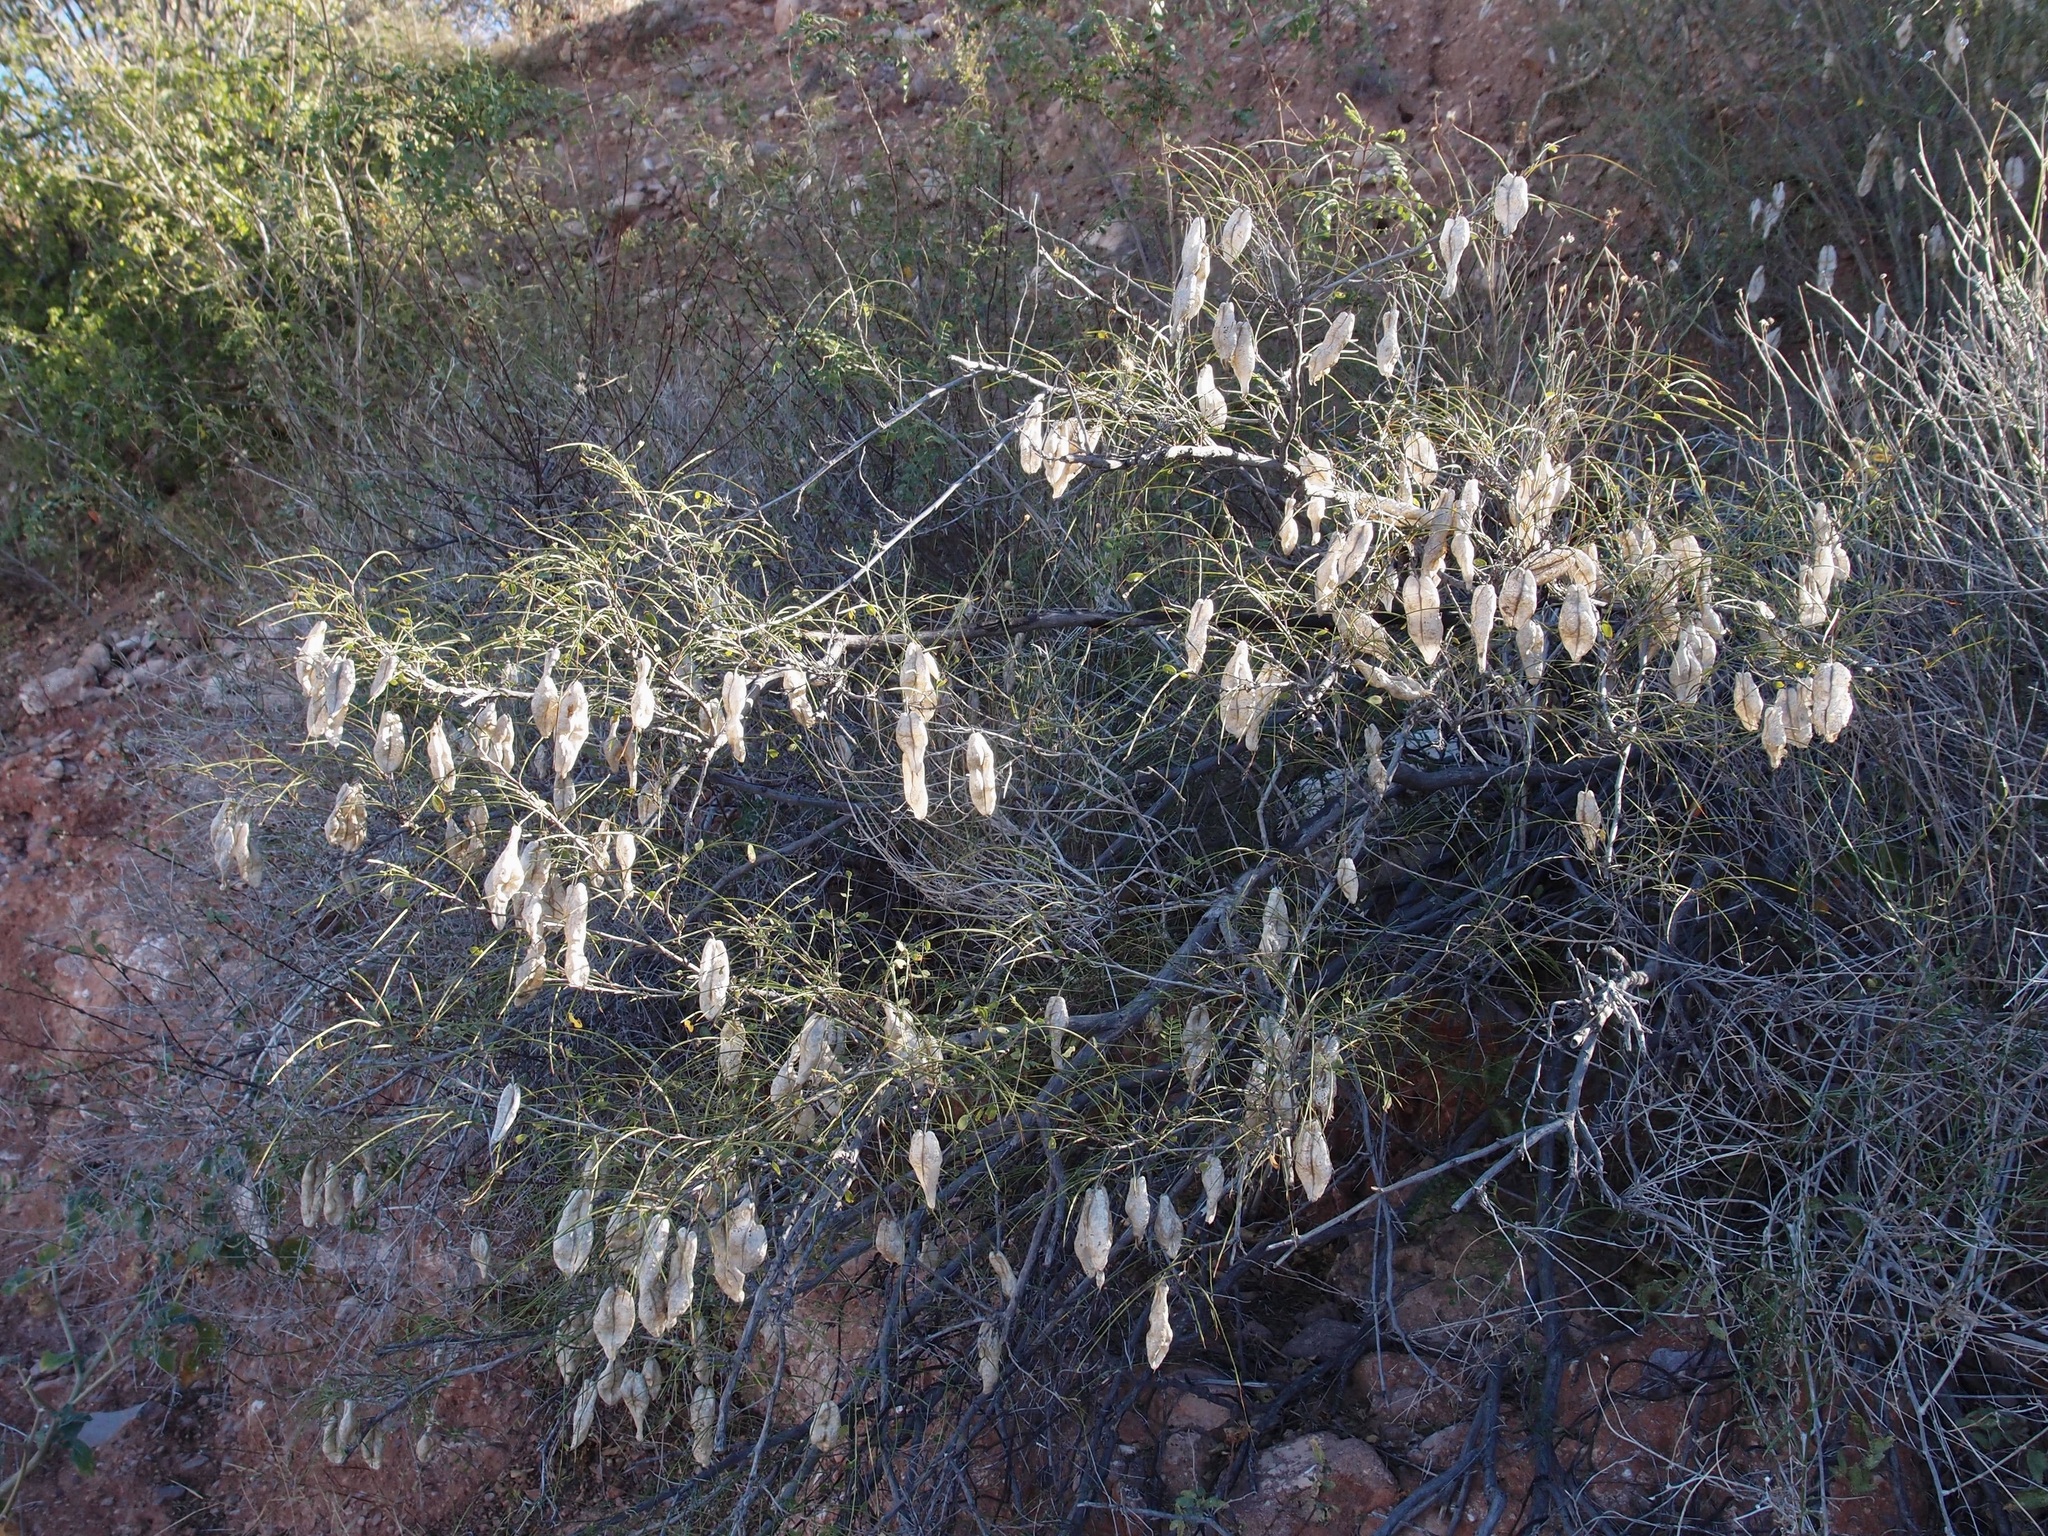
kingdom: Plantae
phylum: Tracheophyta
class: Magnoliopsida
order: Fabales
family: Fabaceae
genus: Diphysa
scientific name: Diphysa occidentalis
